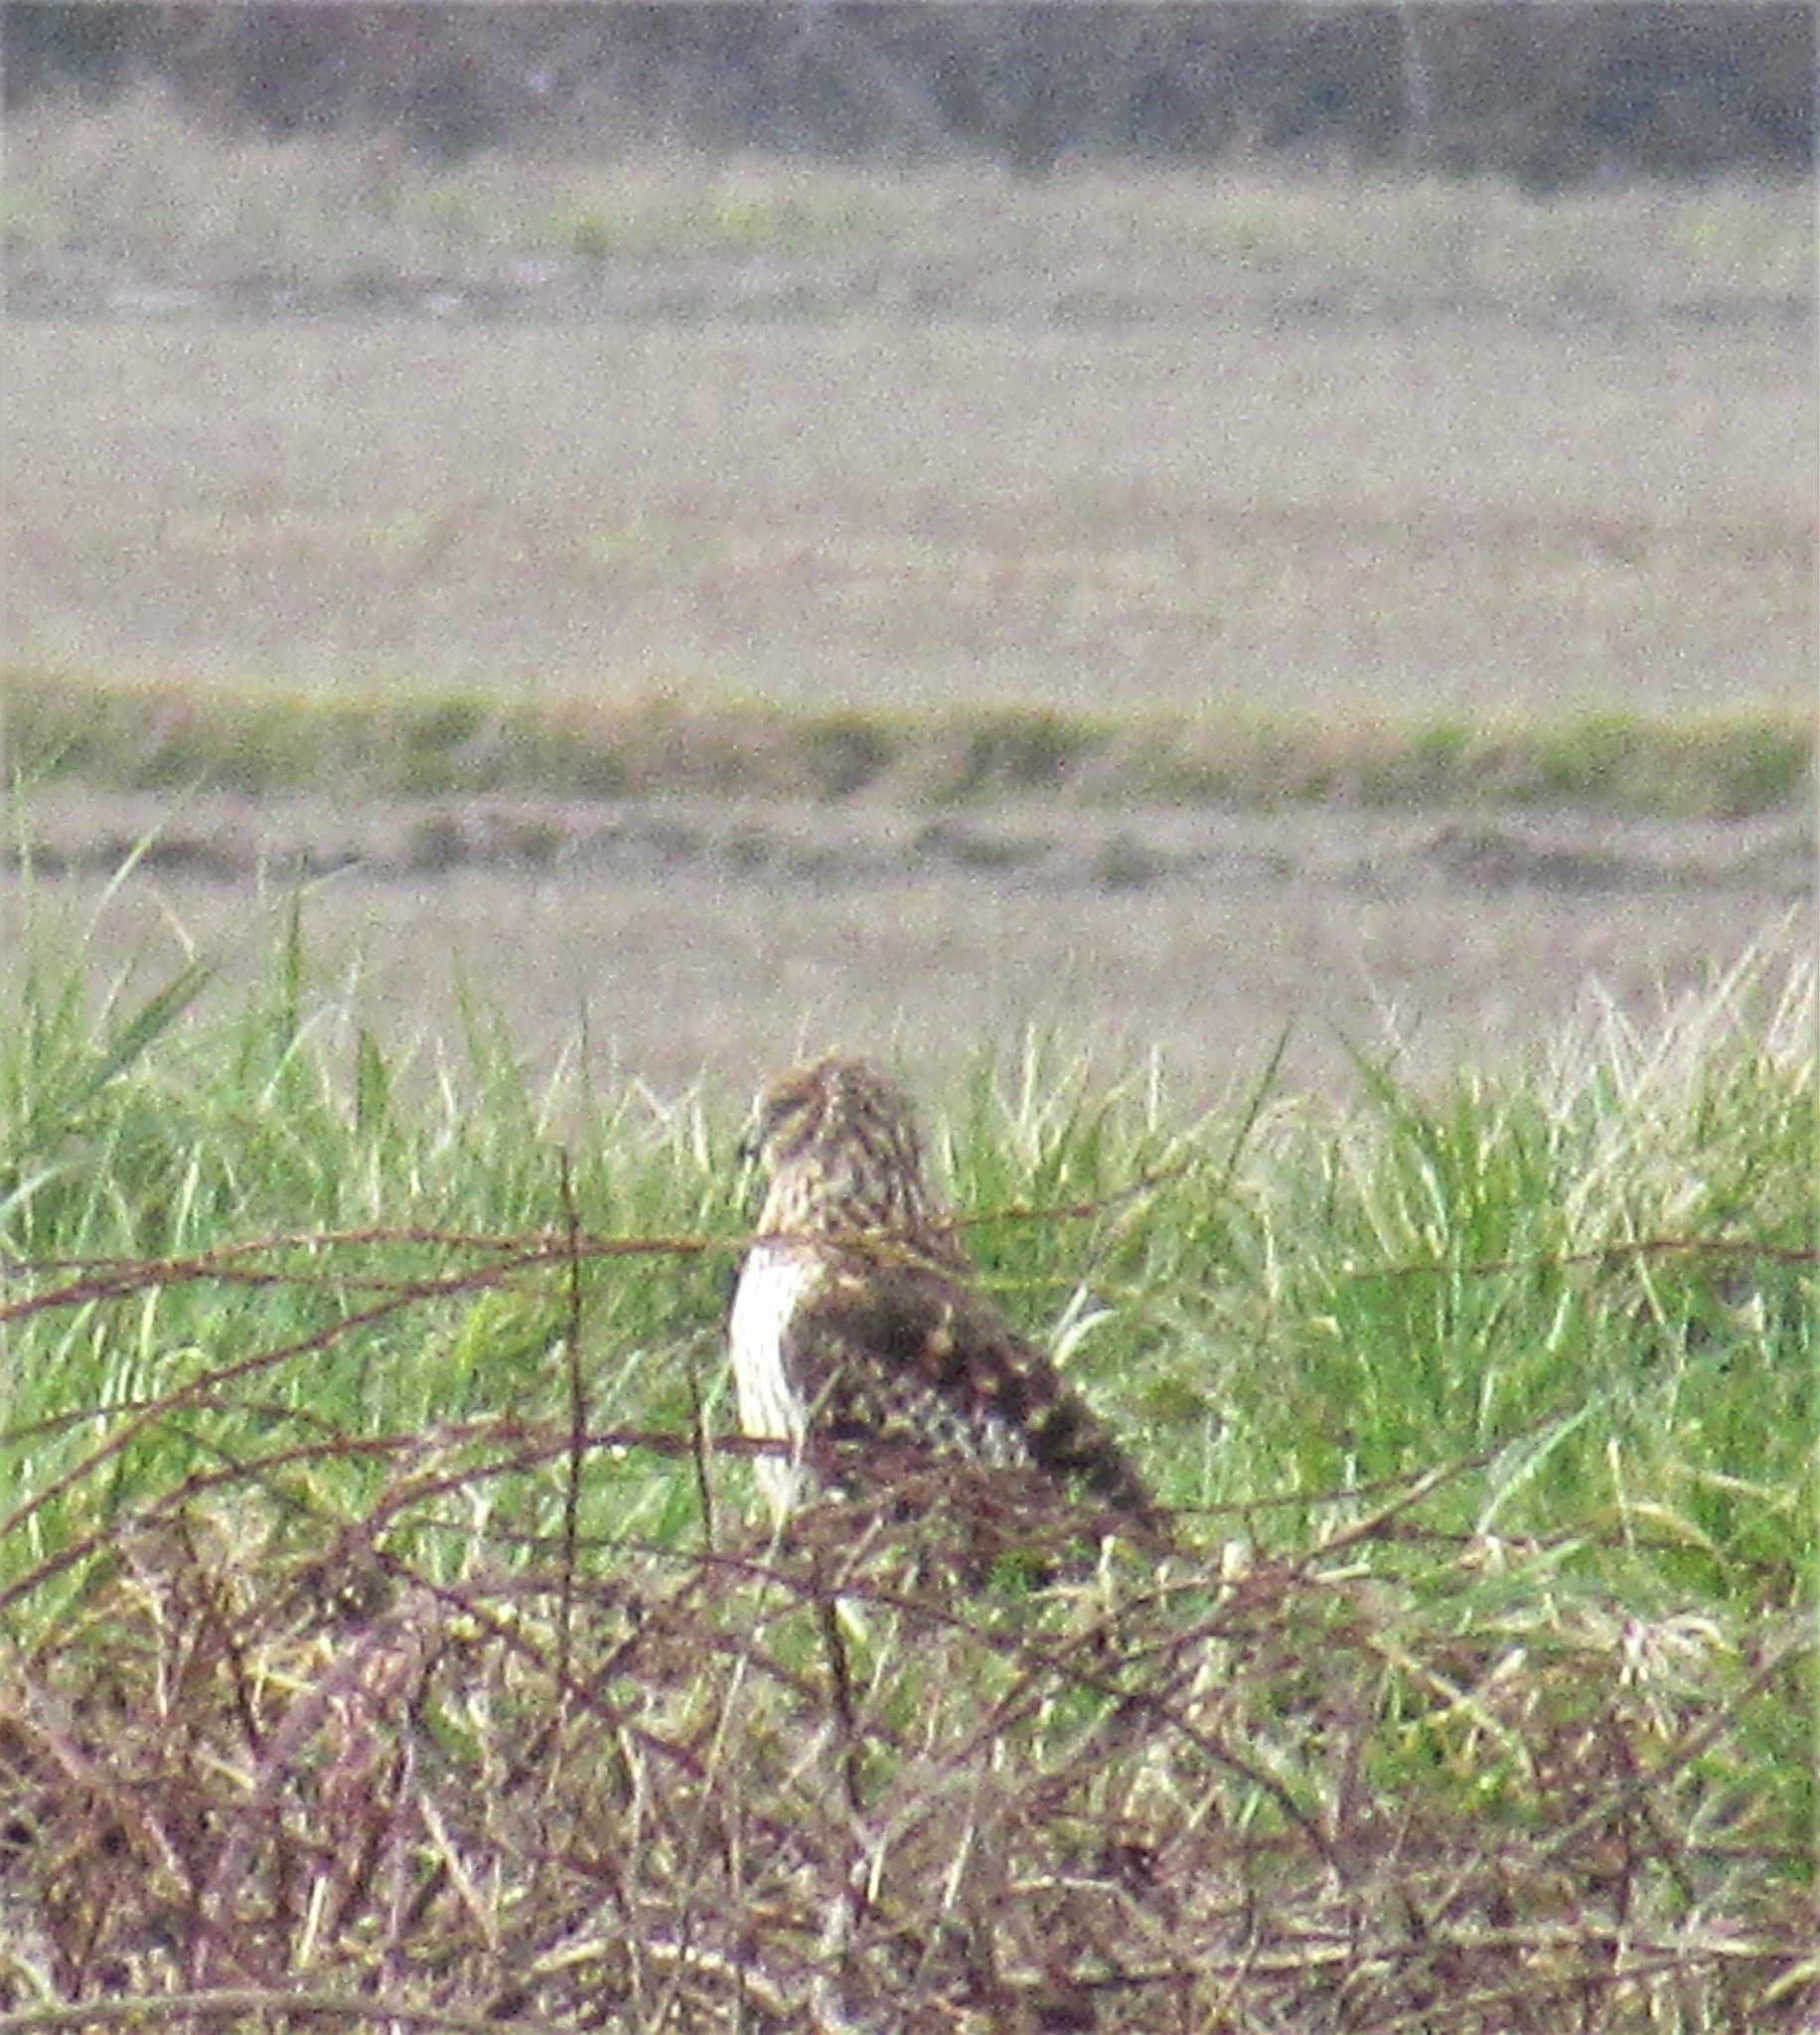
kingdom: Animalia
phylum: Chordata
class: Aves
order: Accipitriformes
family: Accipitridae
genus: Circus
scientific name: Circus cyaneus
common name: Hen harrier
